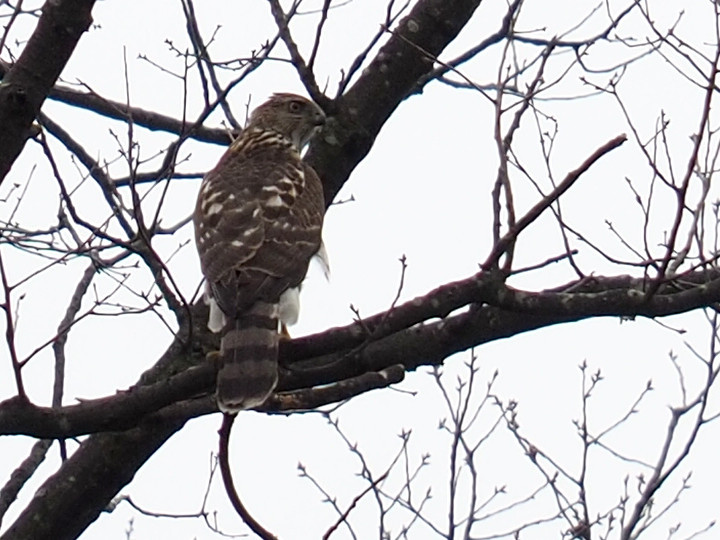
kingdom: Animalia
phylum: Chordata
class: Aves
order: Accipitriformes
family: Accipitridae
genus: Accipiter
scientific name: Accipiter cooperii
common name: Cooper's hawk
